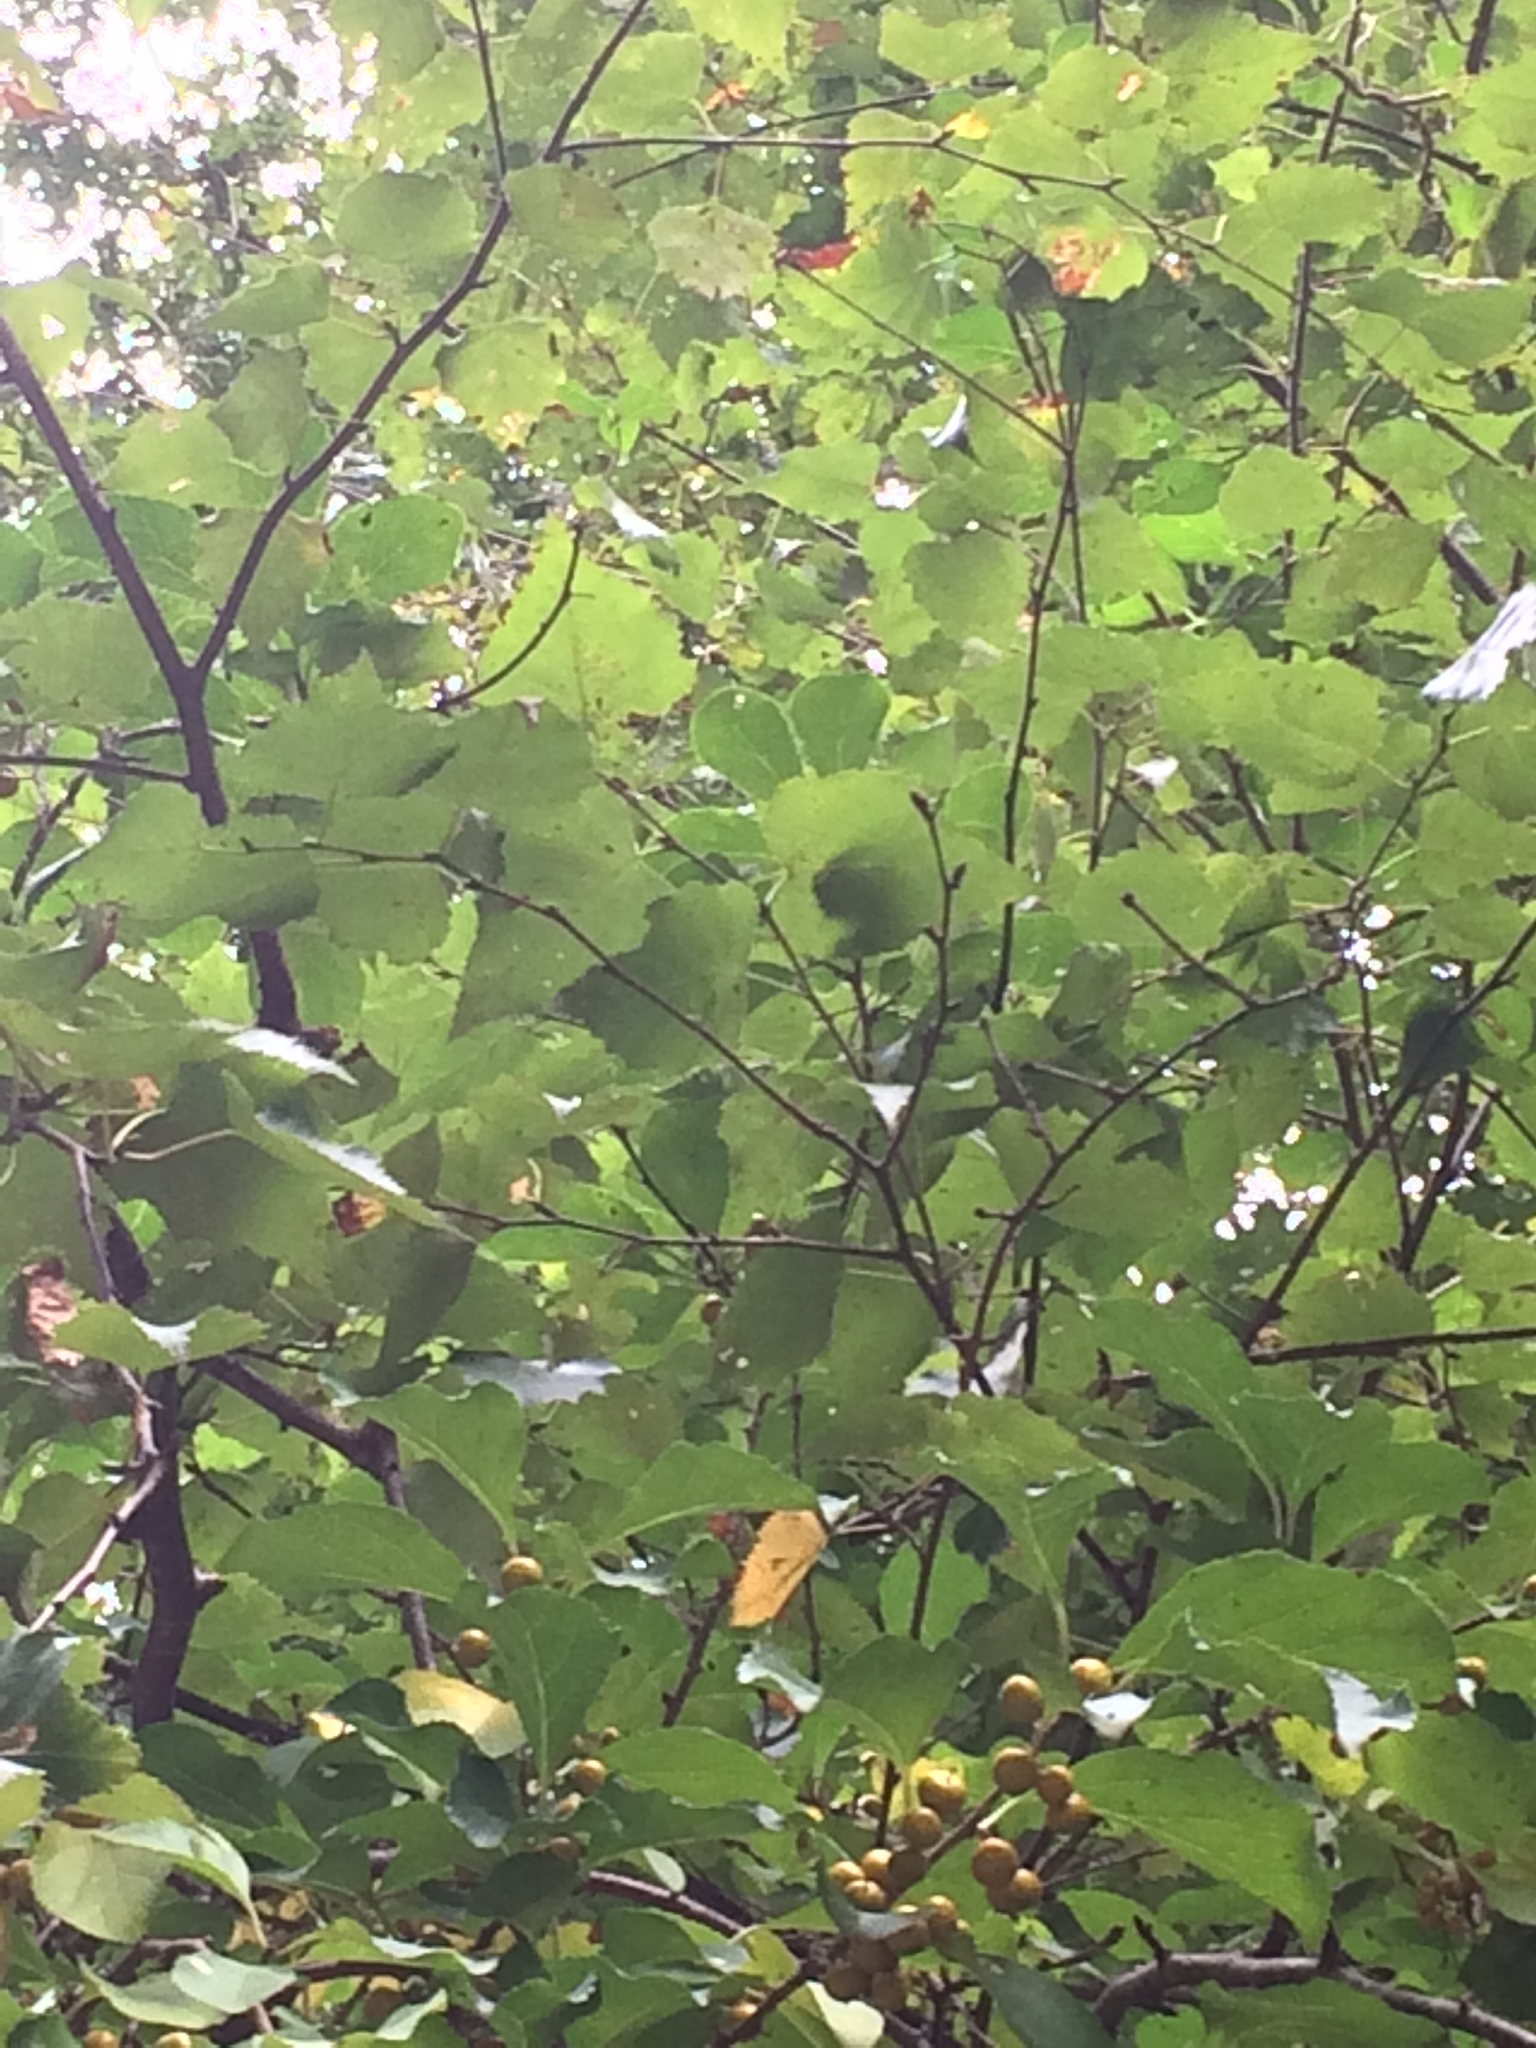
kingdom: Plantae
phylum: Tracheophyta
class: Magnoliopsida
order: Celastrales
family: Celastraceae
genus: Celastrus
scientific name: Celastrus orbiculatus
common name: Oriental bittersweet
